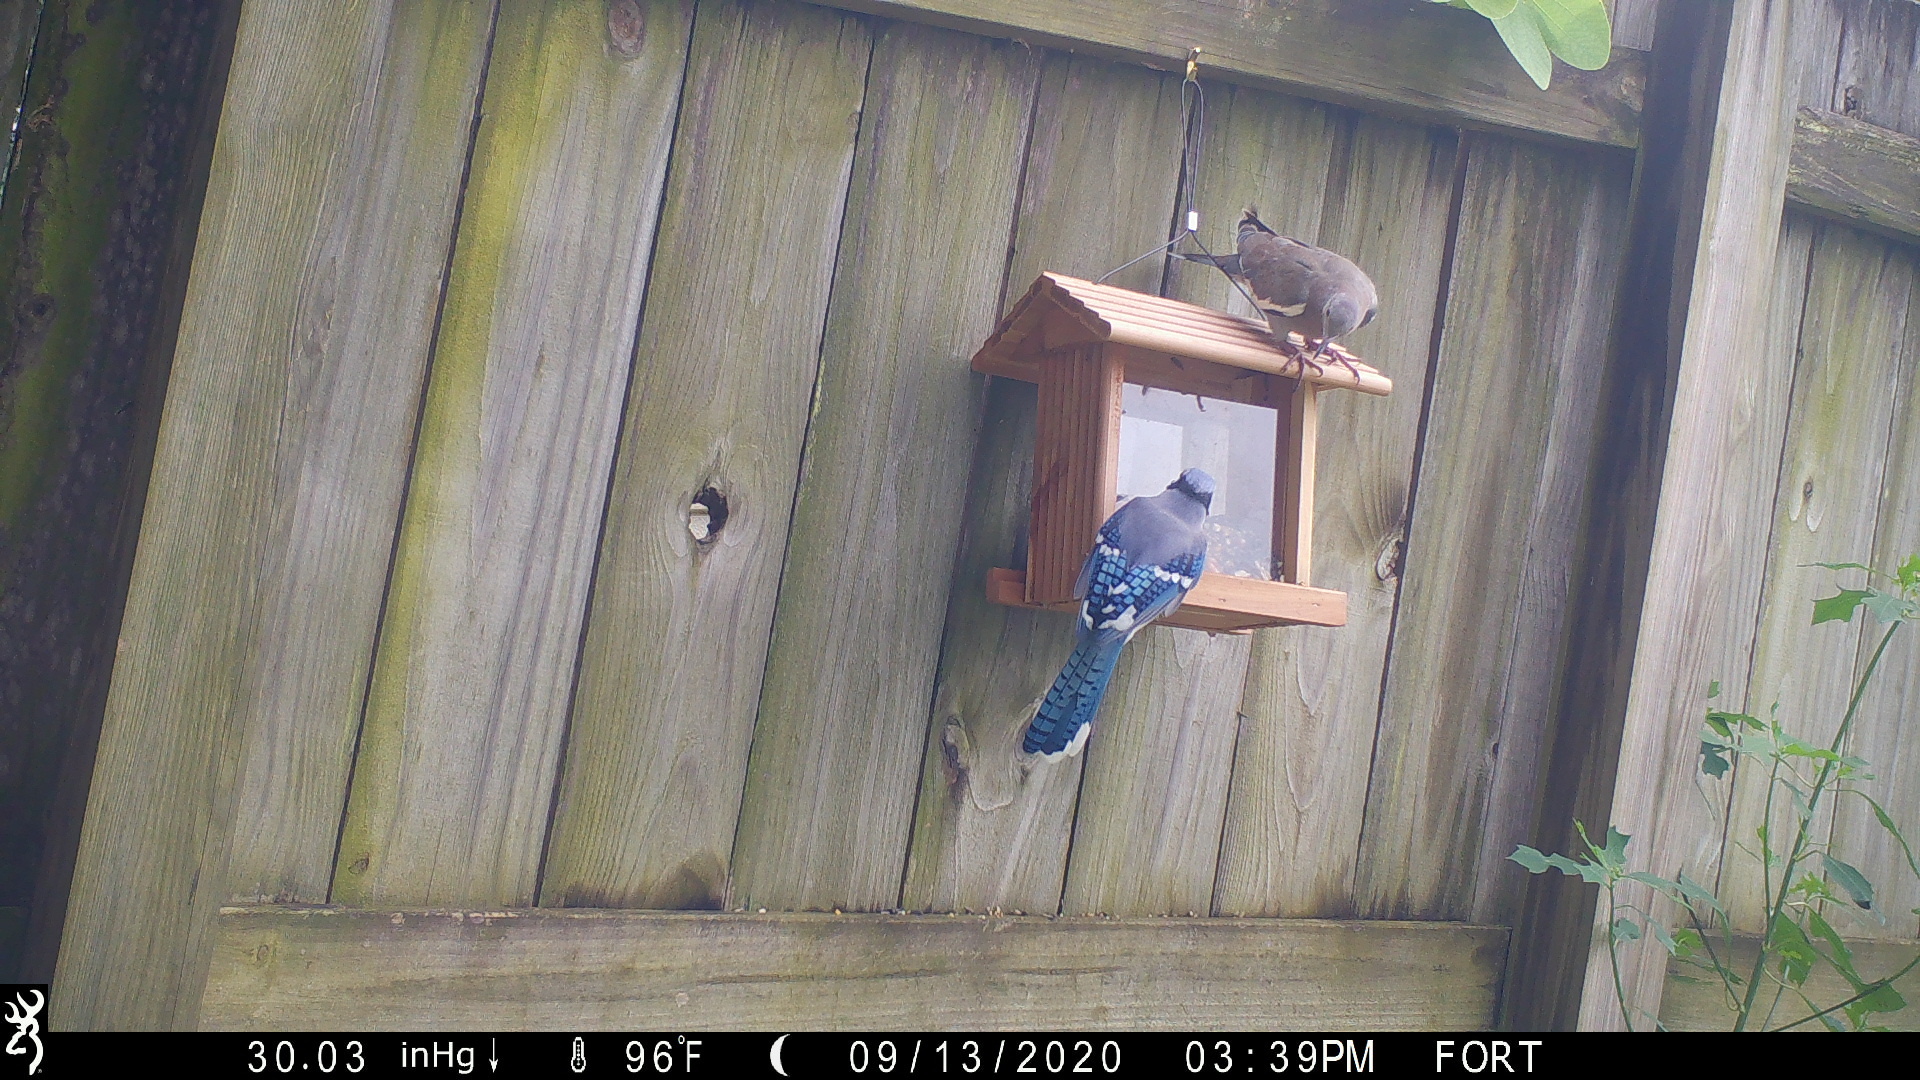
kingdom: Animalia
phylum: Chordata
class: Aves
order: Passeriformes
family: Corvidae
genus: Cyanocitta
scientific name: Cyanocitta cristata
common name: Blue jay
